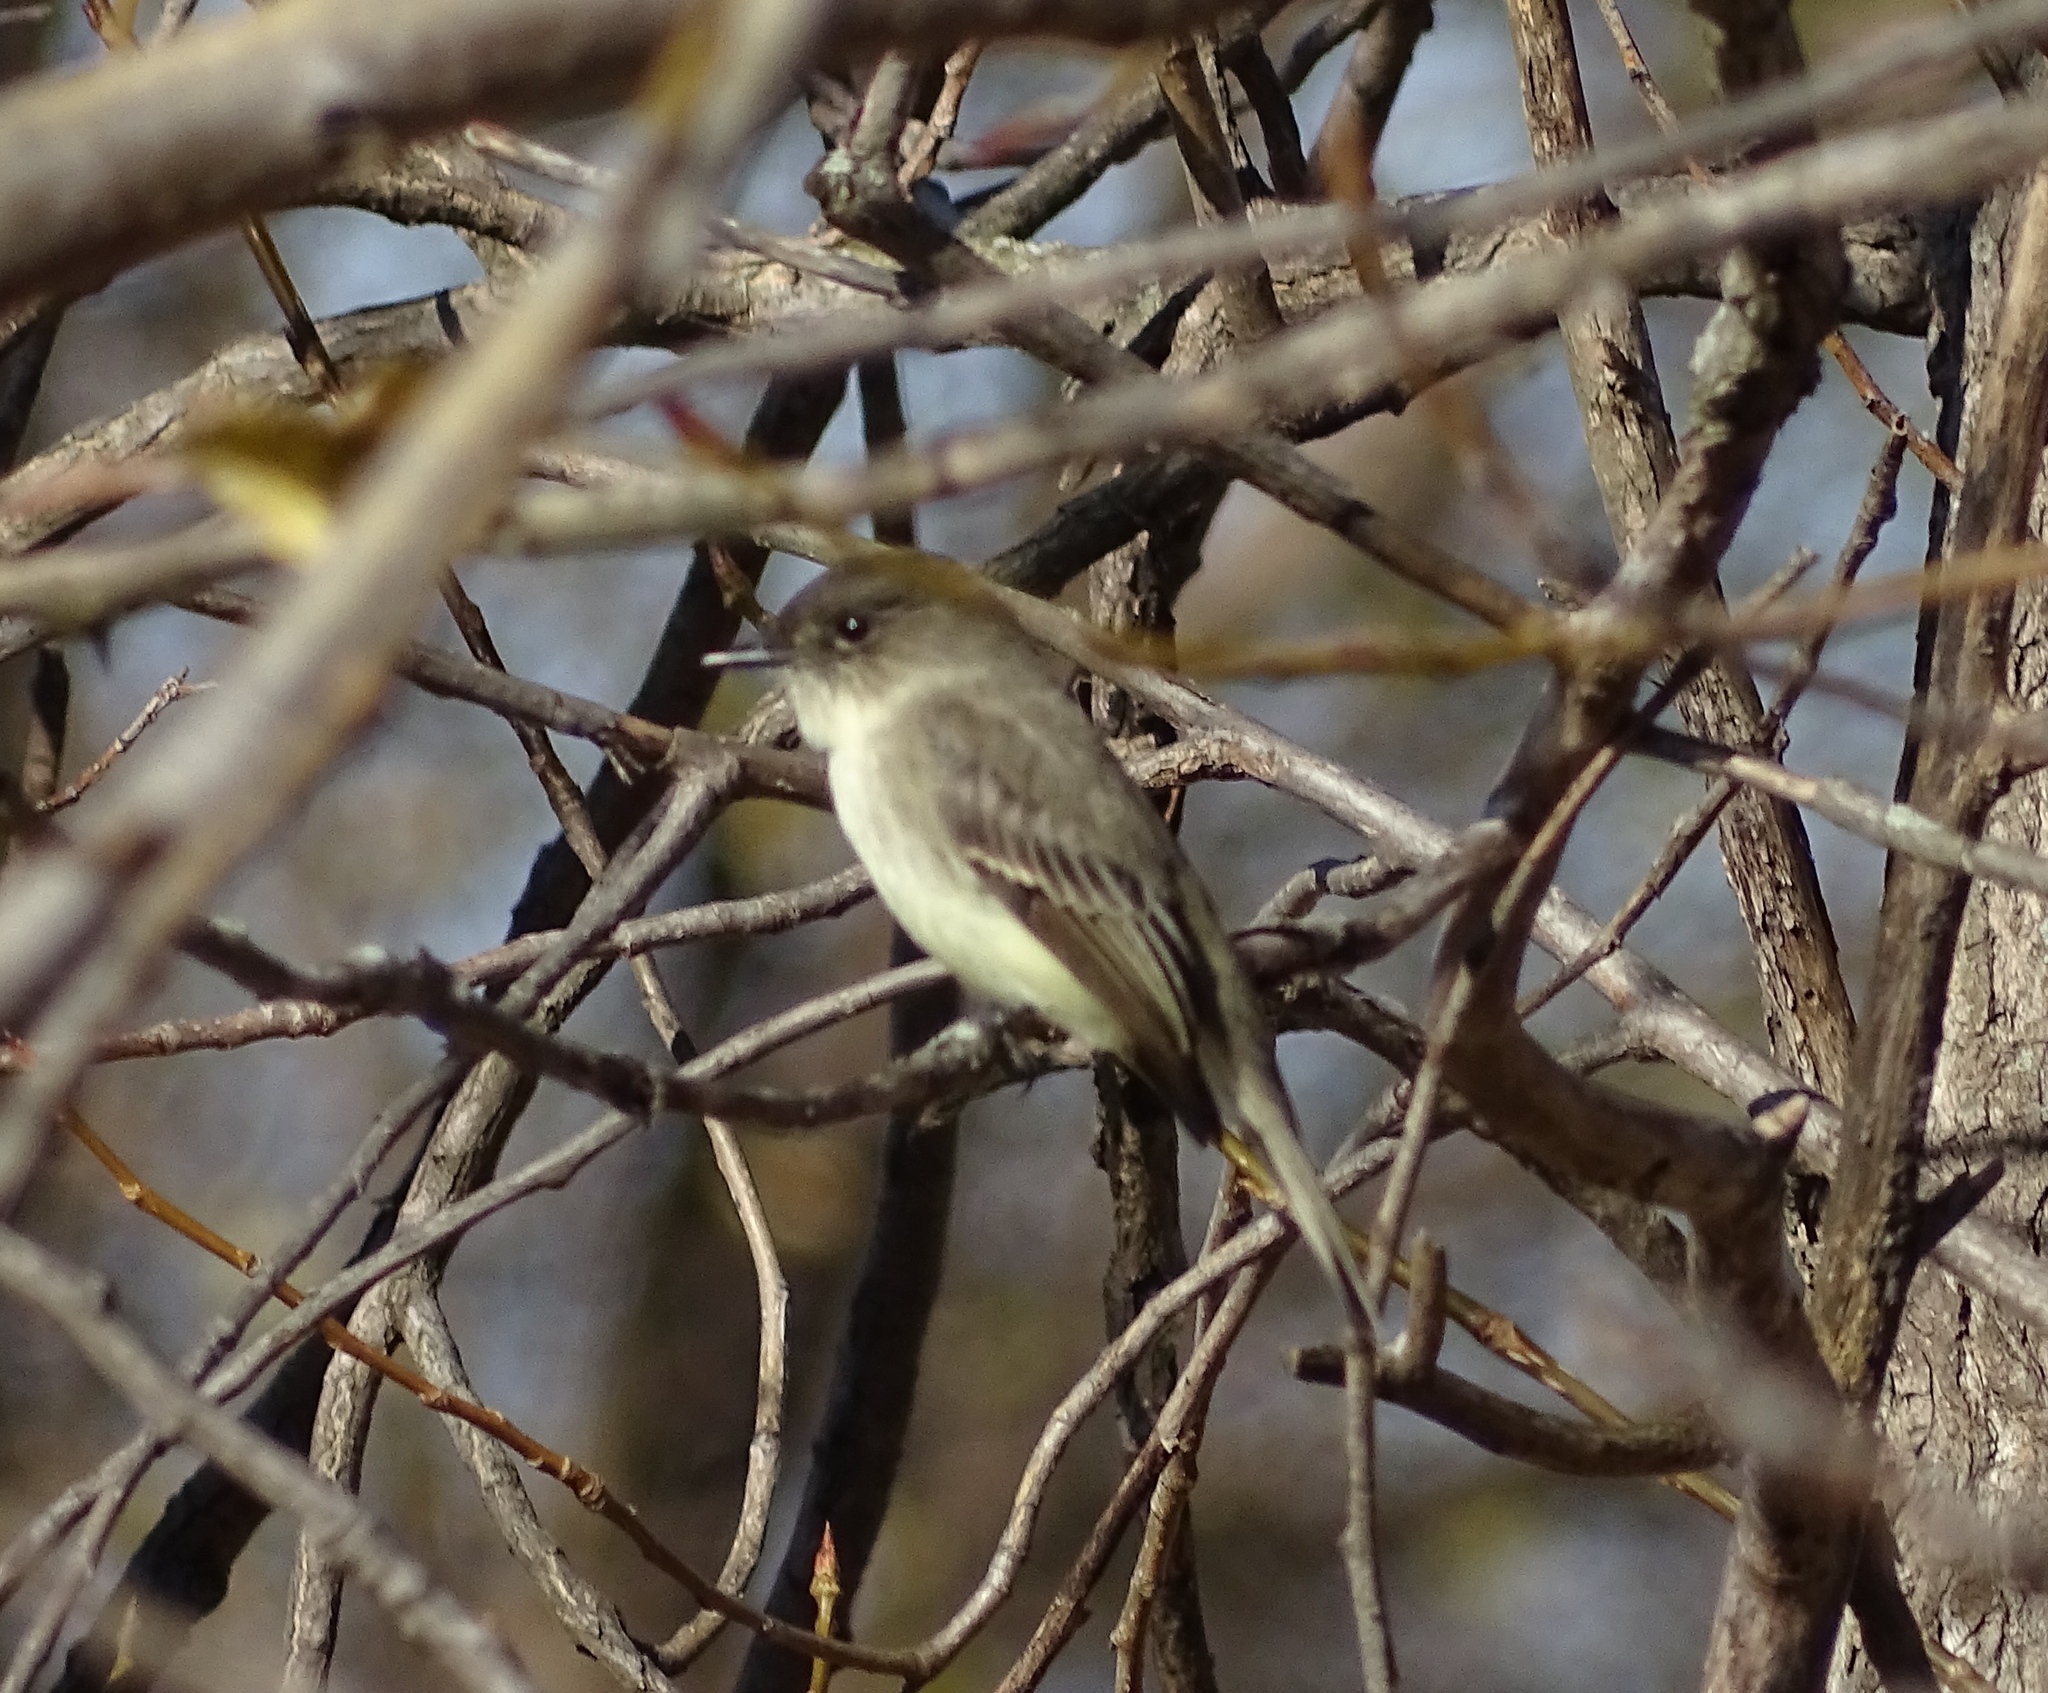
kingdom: Animalia
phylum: Chordata
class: Aves
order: Passeriformes
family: Tyrannidae
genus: Sayornis
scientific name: Sayornis phoebe
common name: Eastern phoebe
